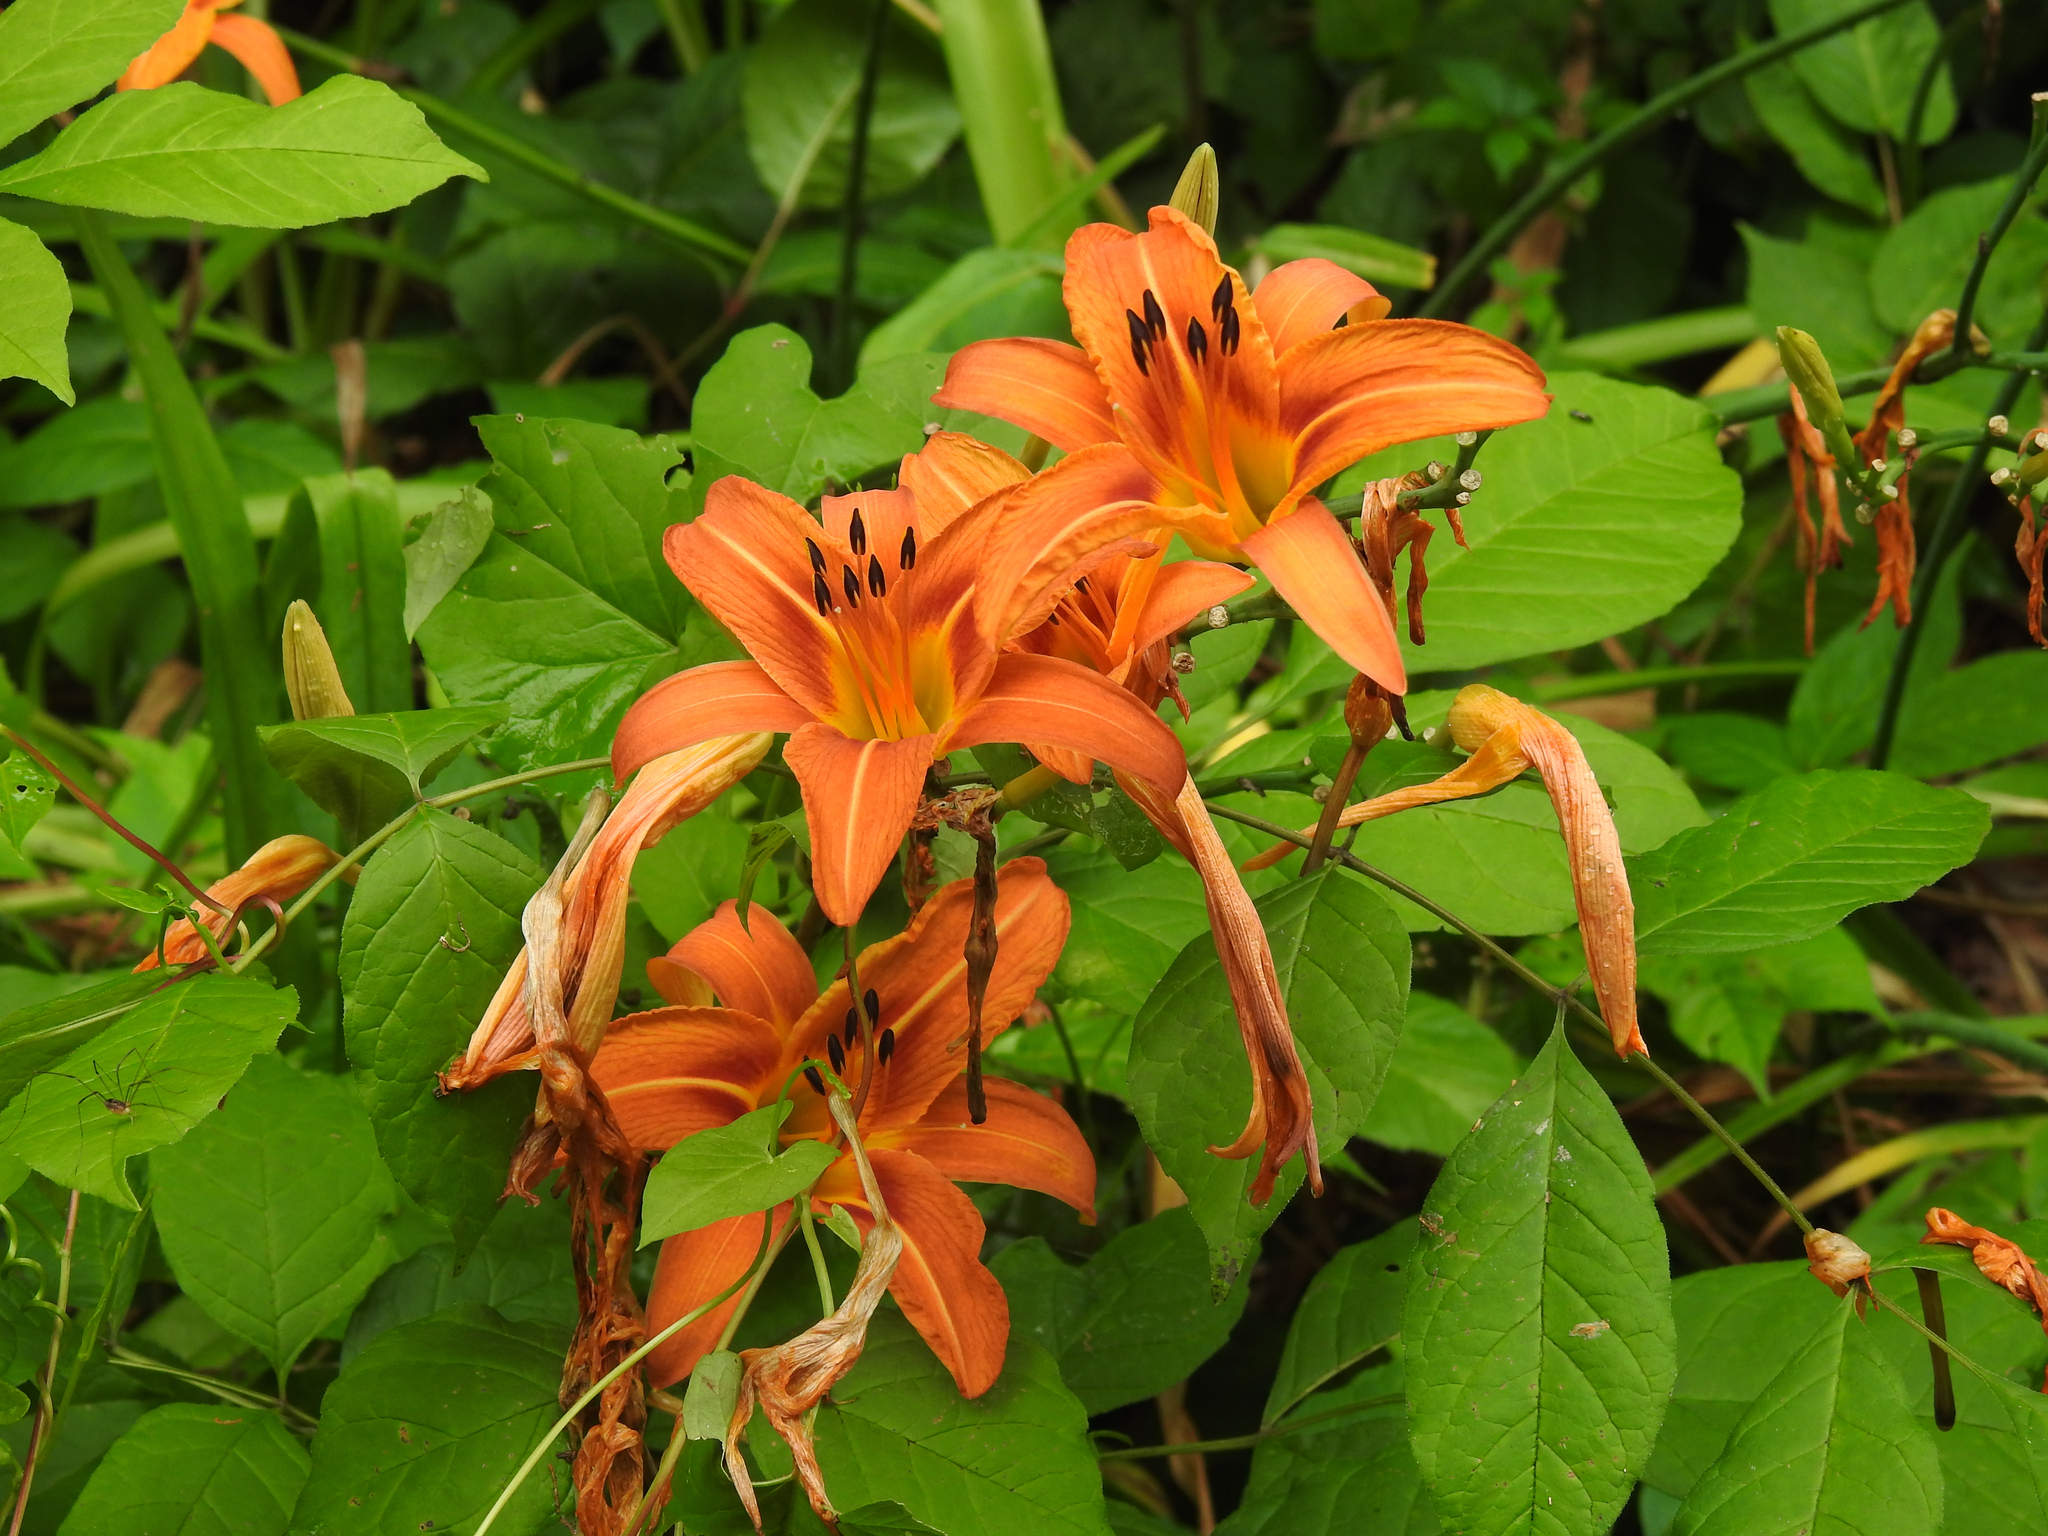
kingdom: Plantae
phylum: Tracheophyta
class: Liliopsida
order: Asparagales
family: Asphodelaceae
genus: Hemerocallis
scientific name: Hemerocallis fulva
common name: Orange day-lily
